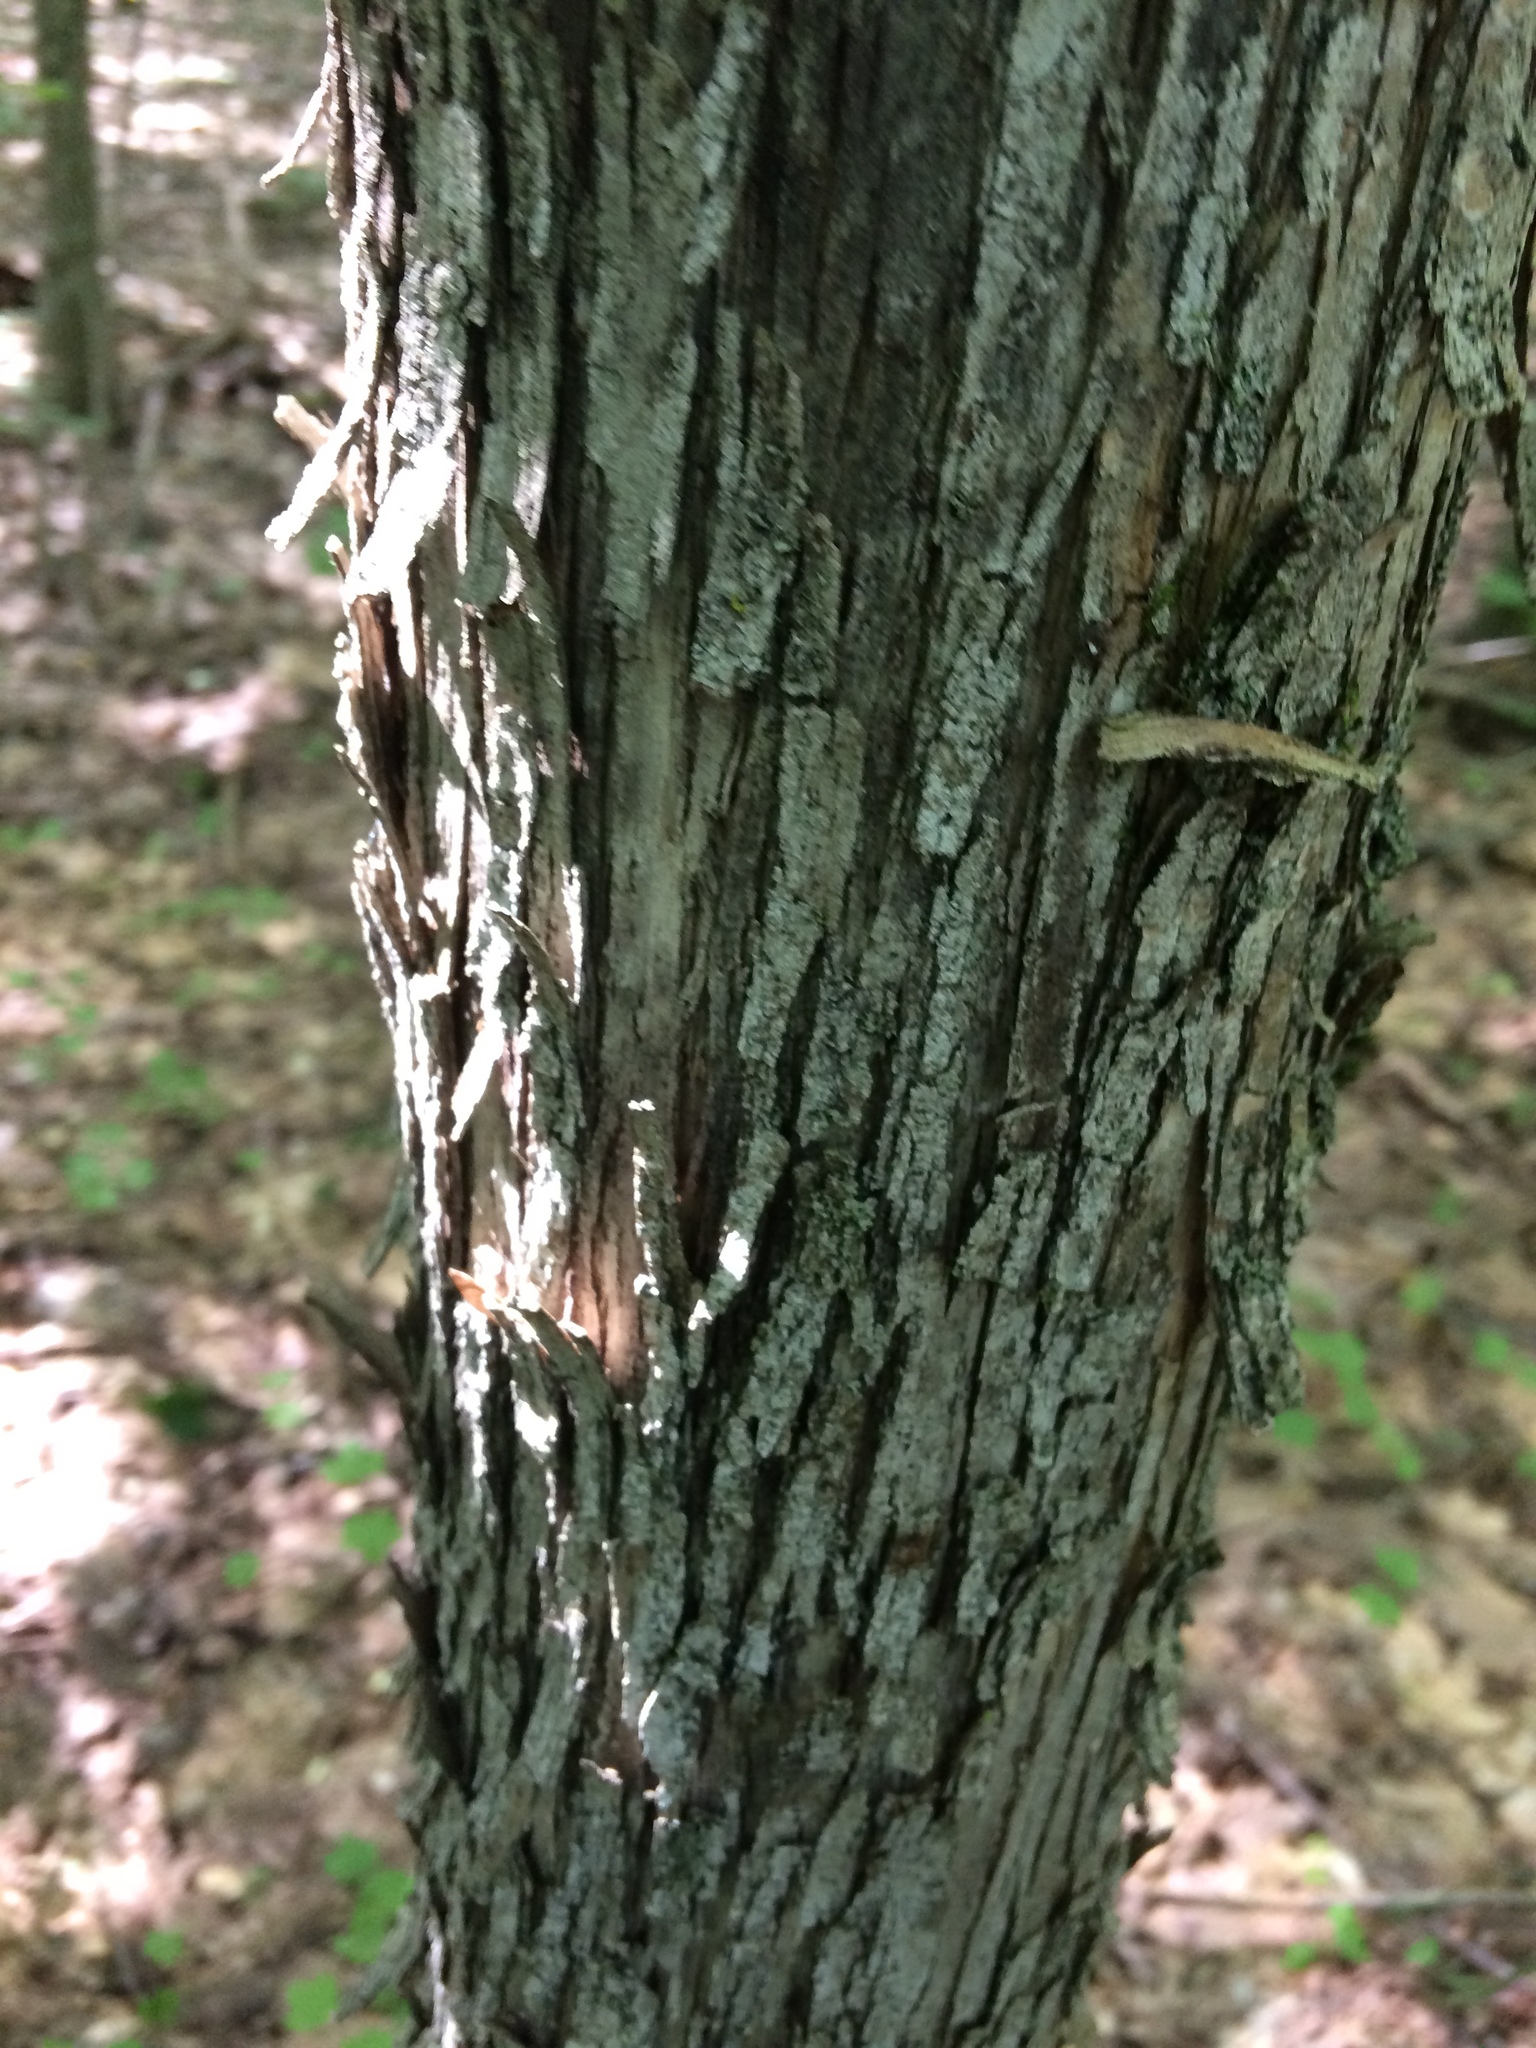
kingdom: Plantae
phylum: Tracheophyta
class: Magnoliopsida
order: Fagales
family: Betulaceae
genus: Ostrya
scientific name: Ostrya virginiana
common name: Ironwood
